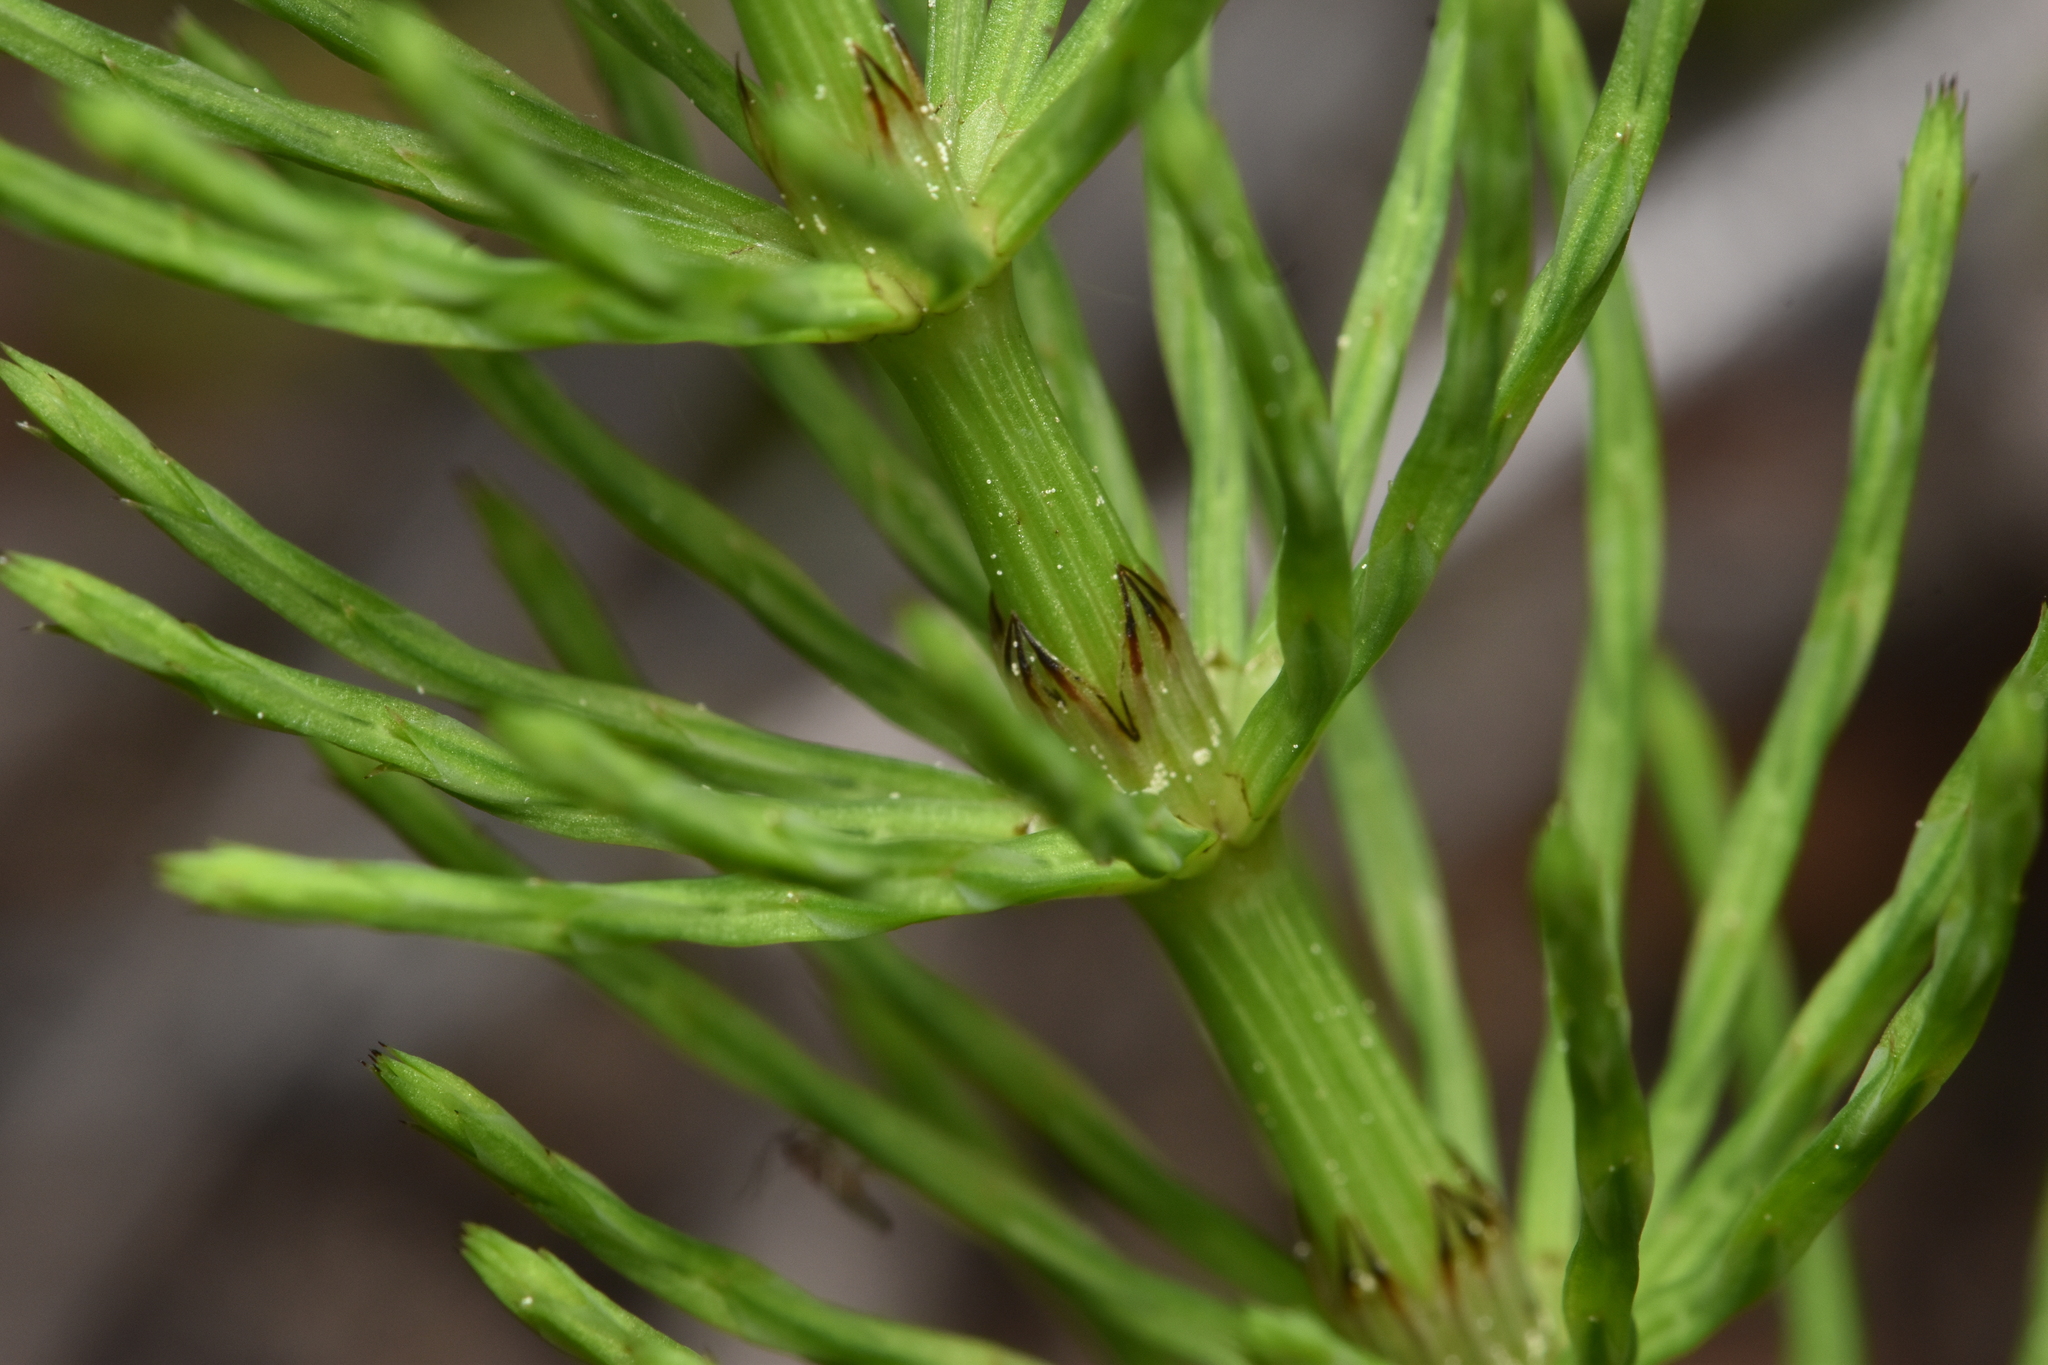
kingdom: Plantae
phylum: Tracheophyta
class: Polypodiopsida
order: Equisetales
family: Equisetaceae
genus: Equisetum
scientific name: Equisetum arvense
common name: Field horsetail
